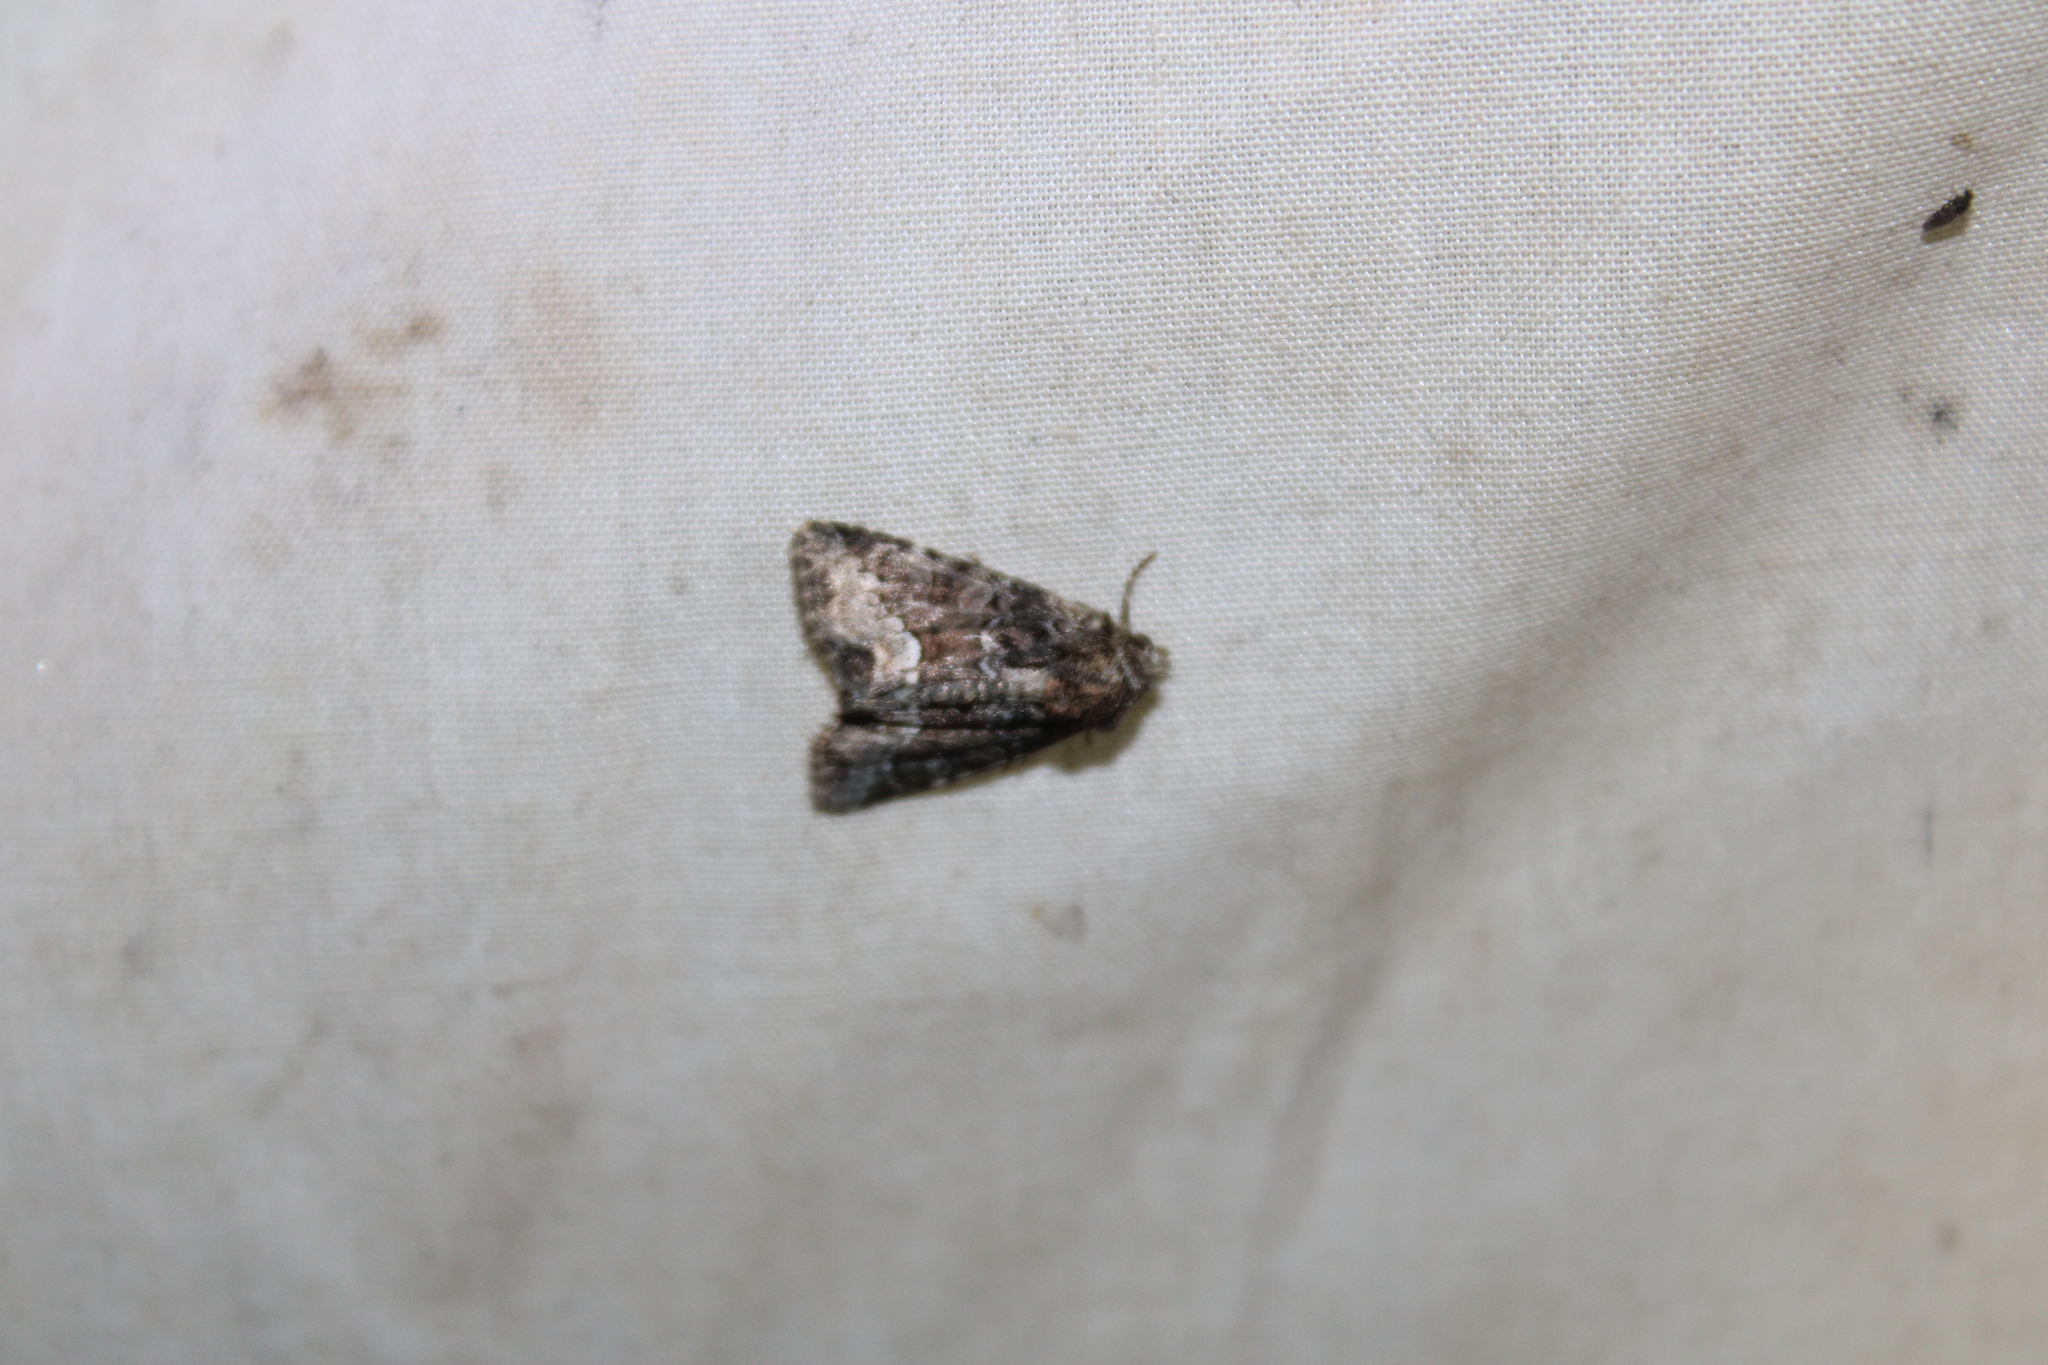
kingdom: Animalia
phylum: Arthropoda
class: Insecta
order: Lepidoptera
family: Noctuidae
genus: Oligia
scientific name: Oligia strigilis
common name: Marbled minor
